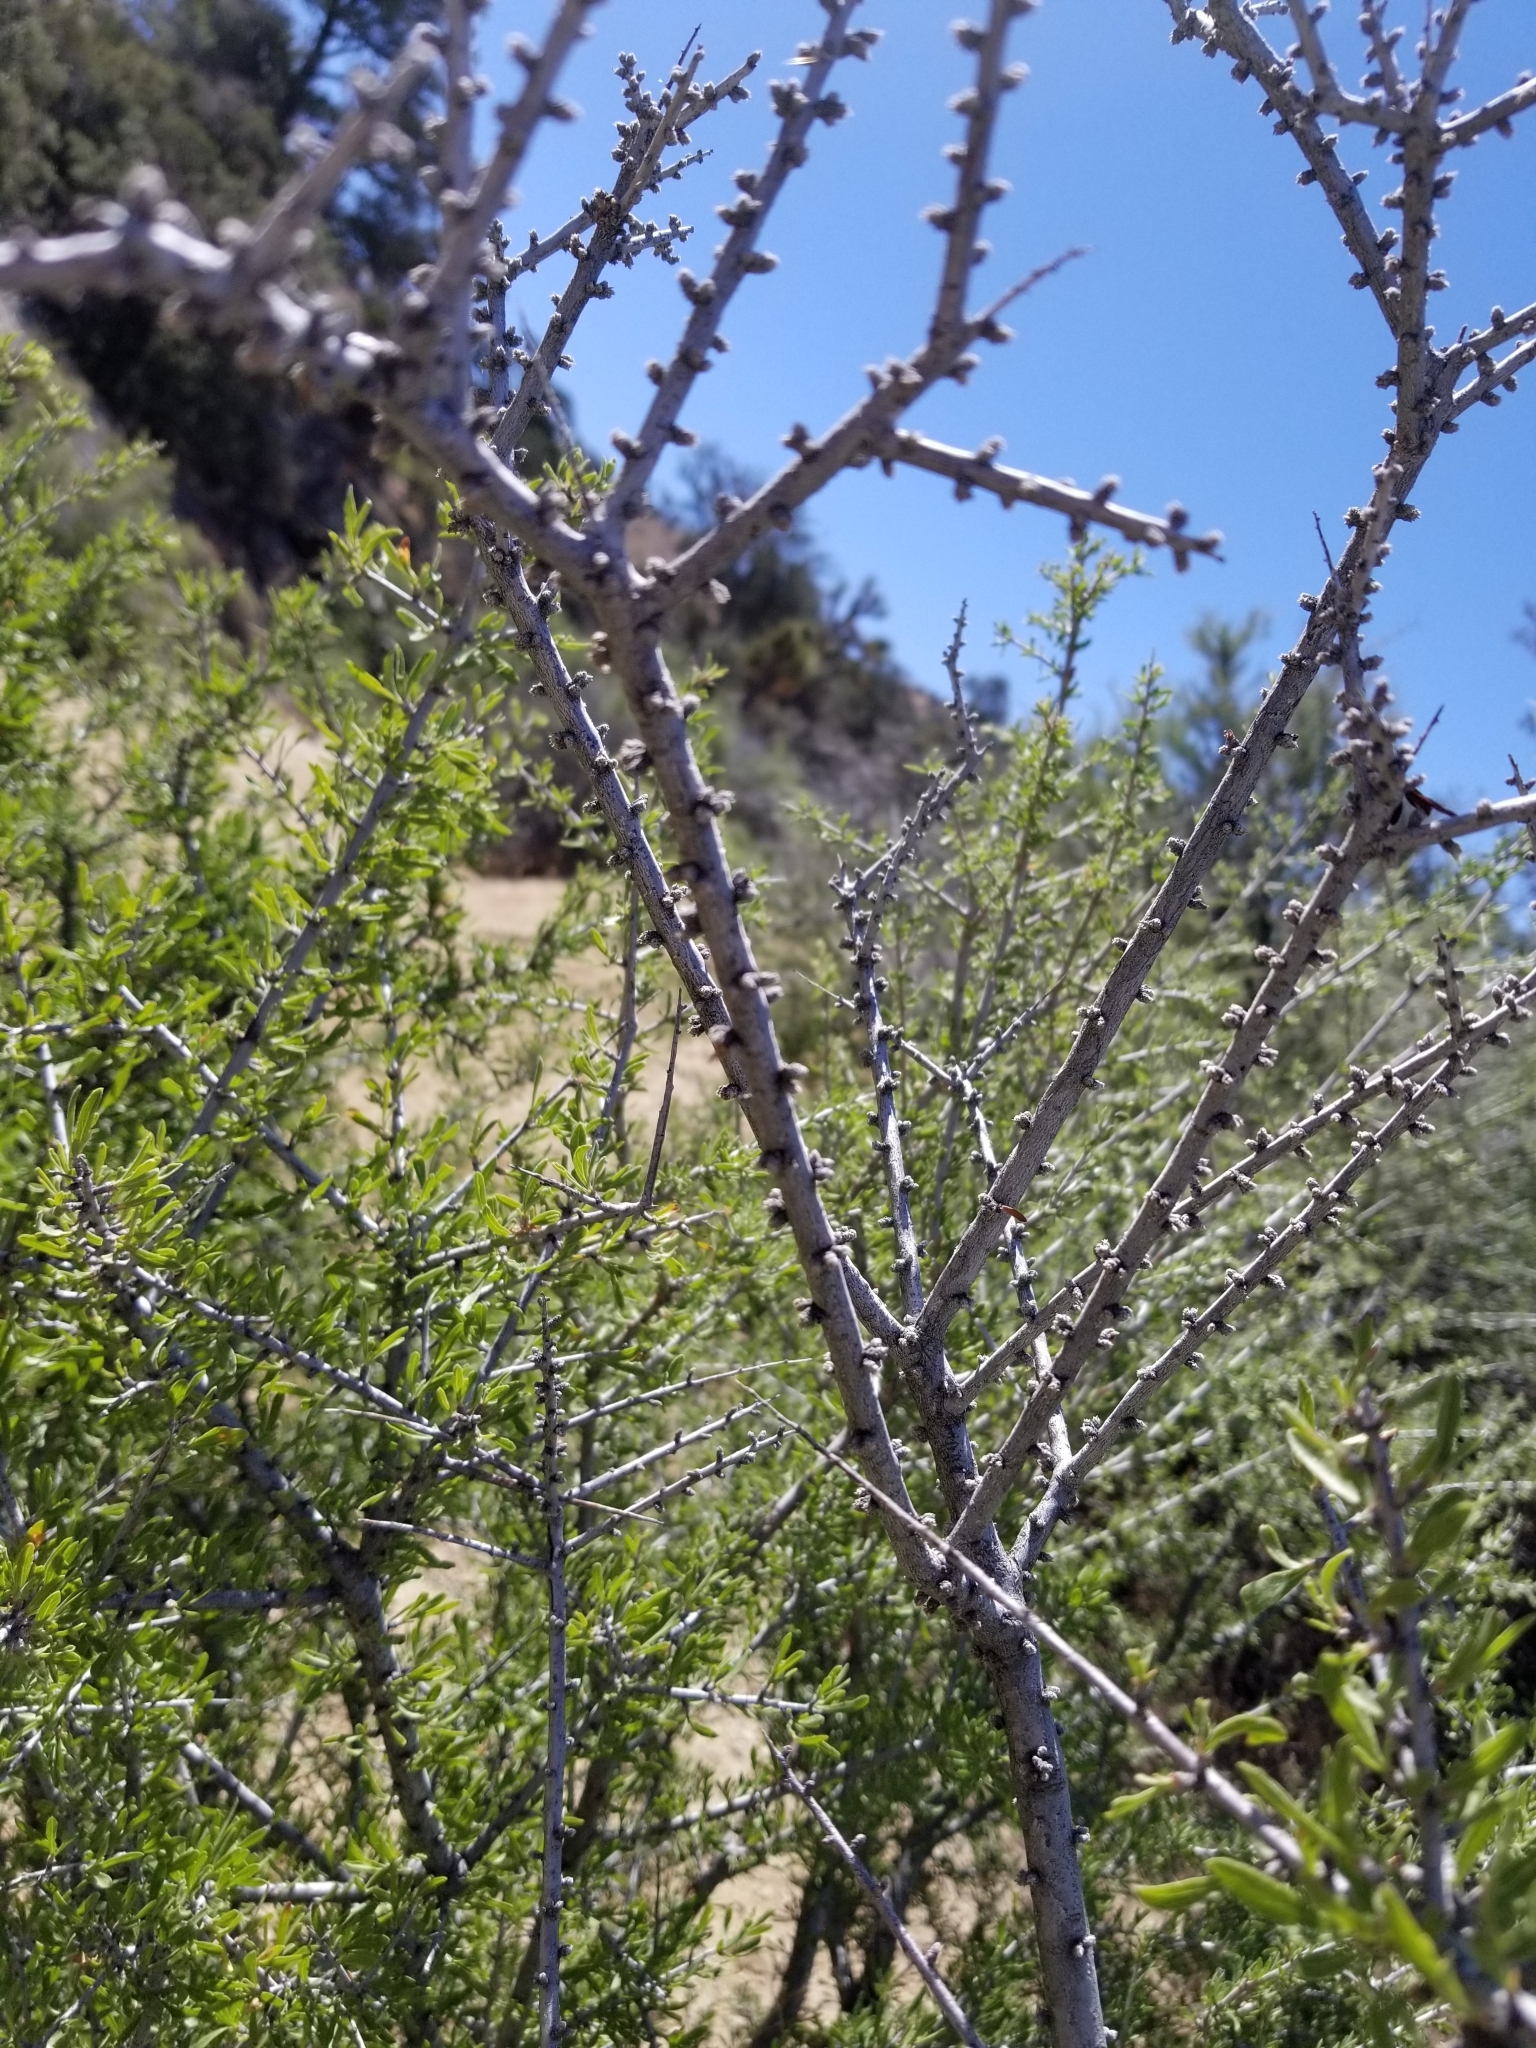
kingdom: Plantae
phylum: Tracheophyta
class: Magnoliopsida
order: Rosales
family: Rosaceae
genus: Prunus
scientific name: Prunus fasciculata
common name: Desert almond
